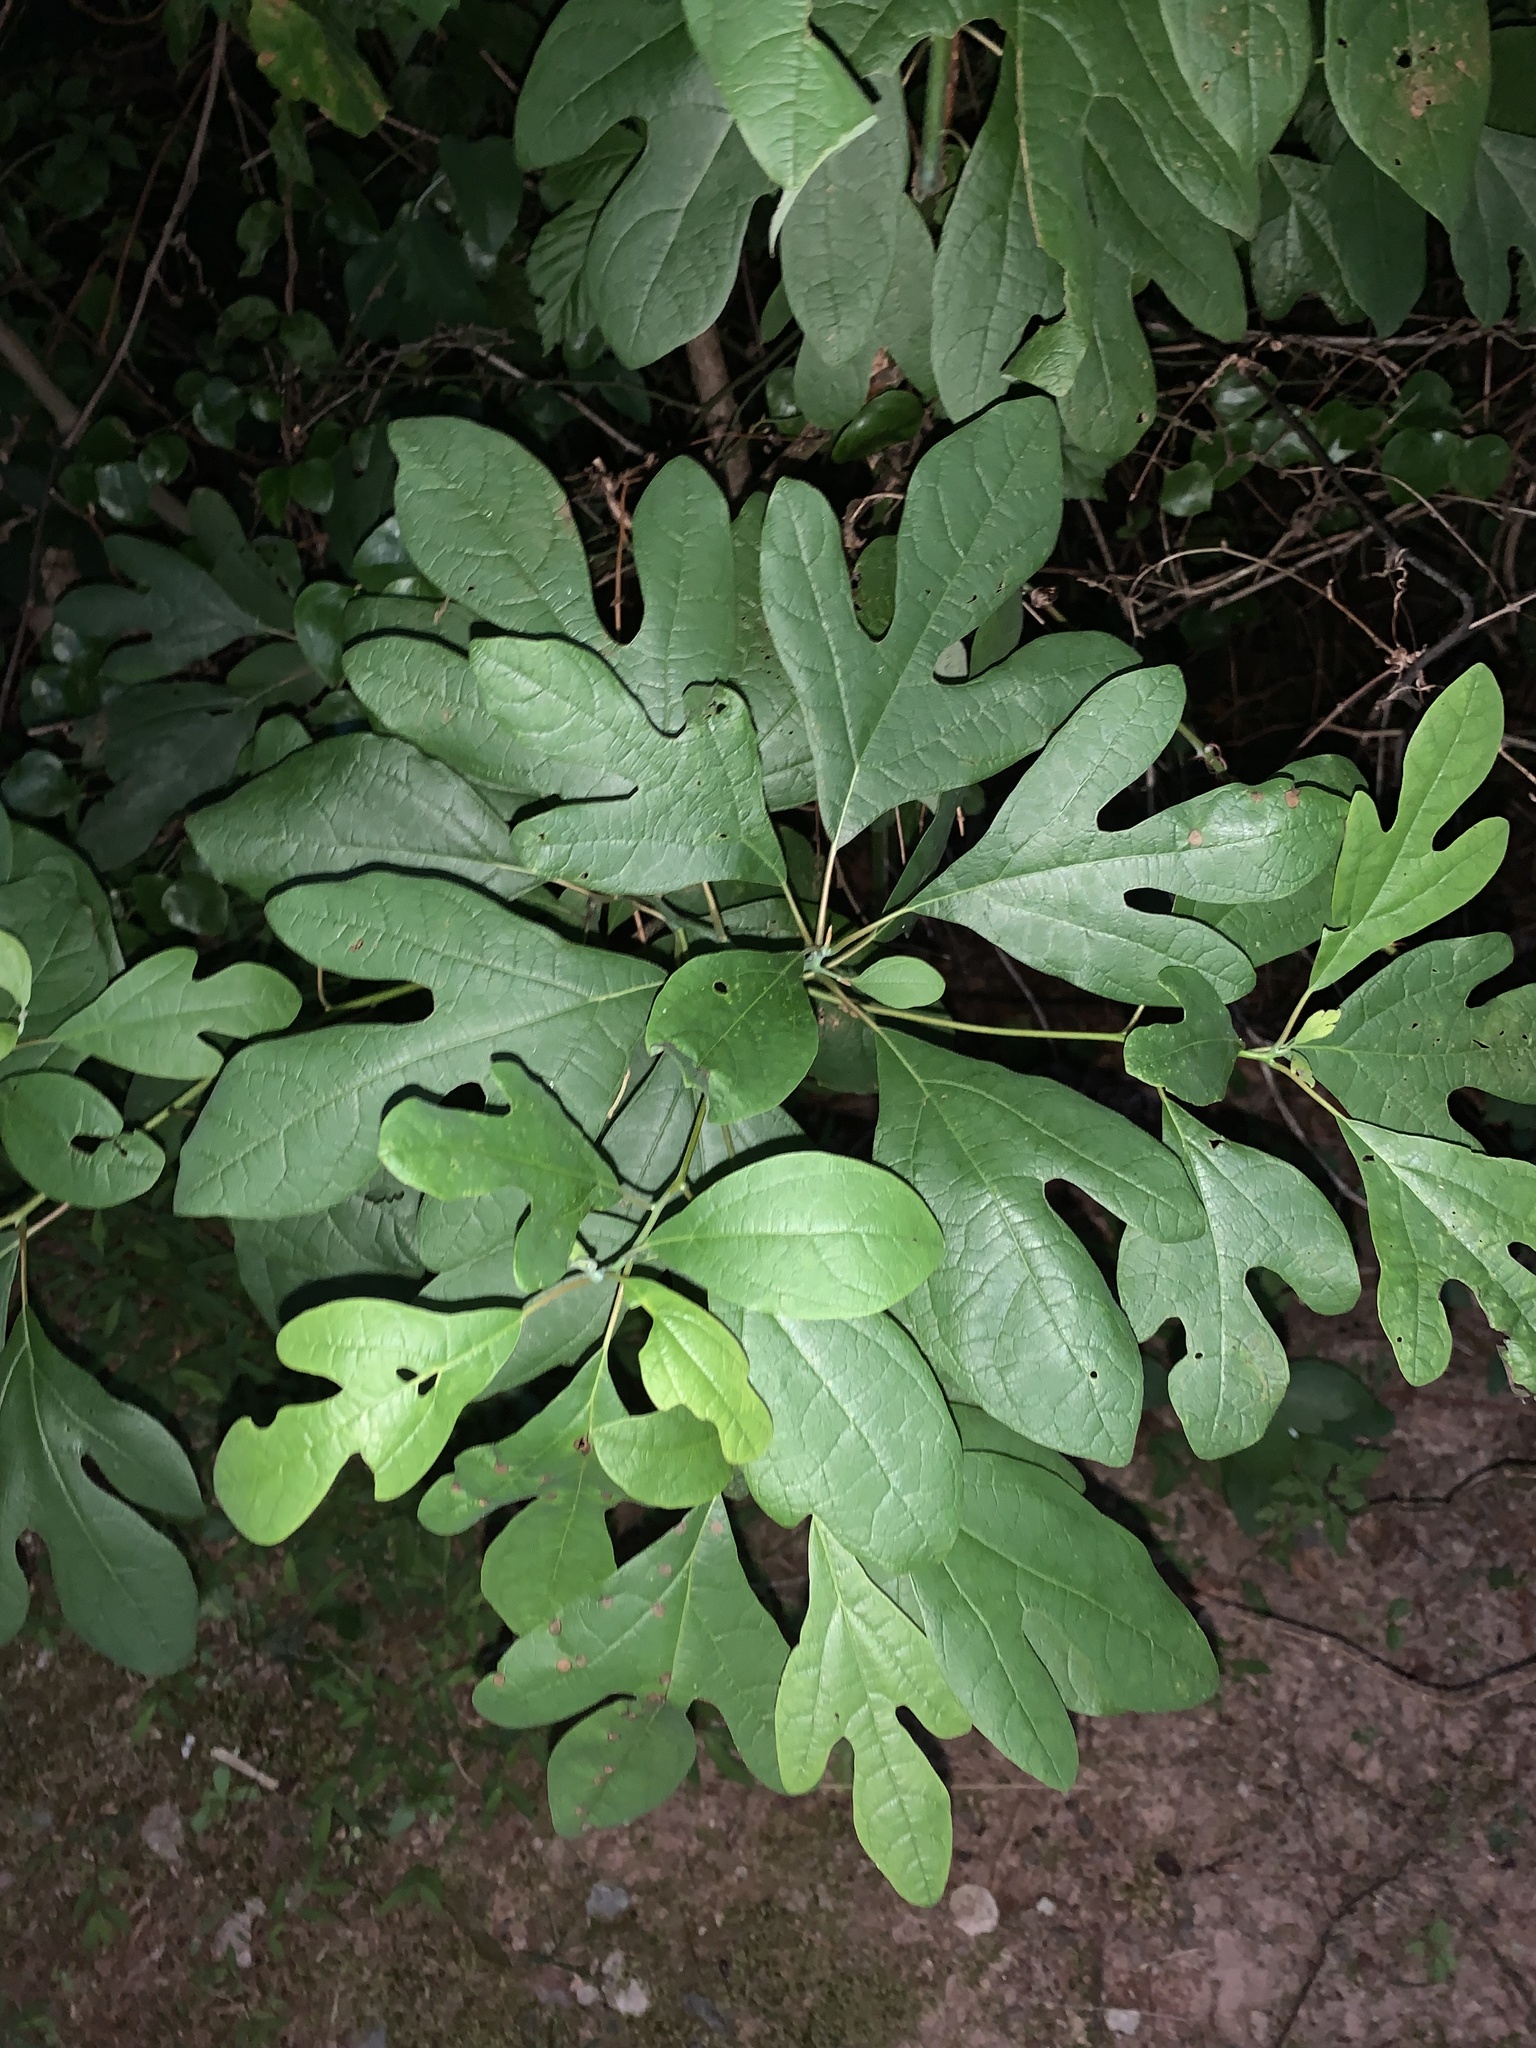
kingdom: Plantae
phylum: Tracheophyta
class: Magnoliopsida
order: Laurales
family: Lauraceae
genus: Sassafras
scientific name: Sassafras albidum
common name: Sassafras
